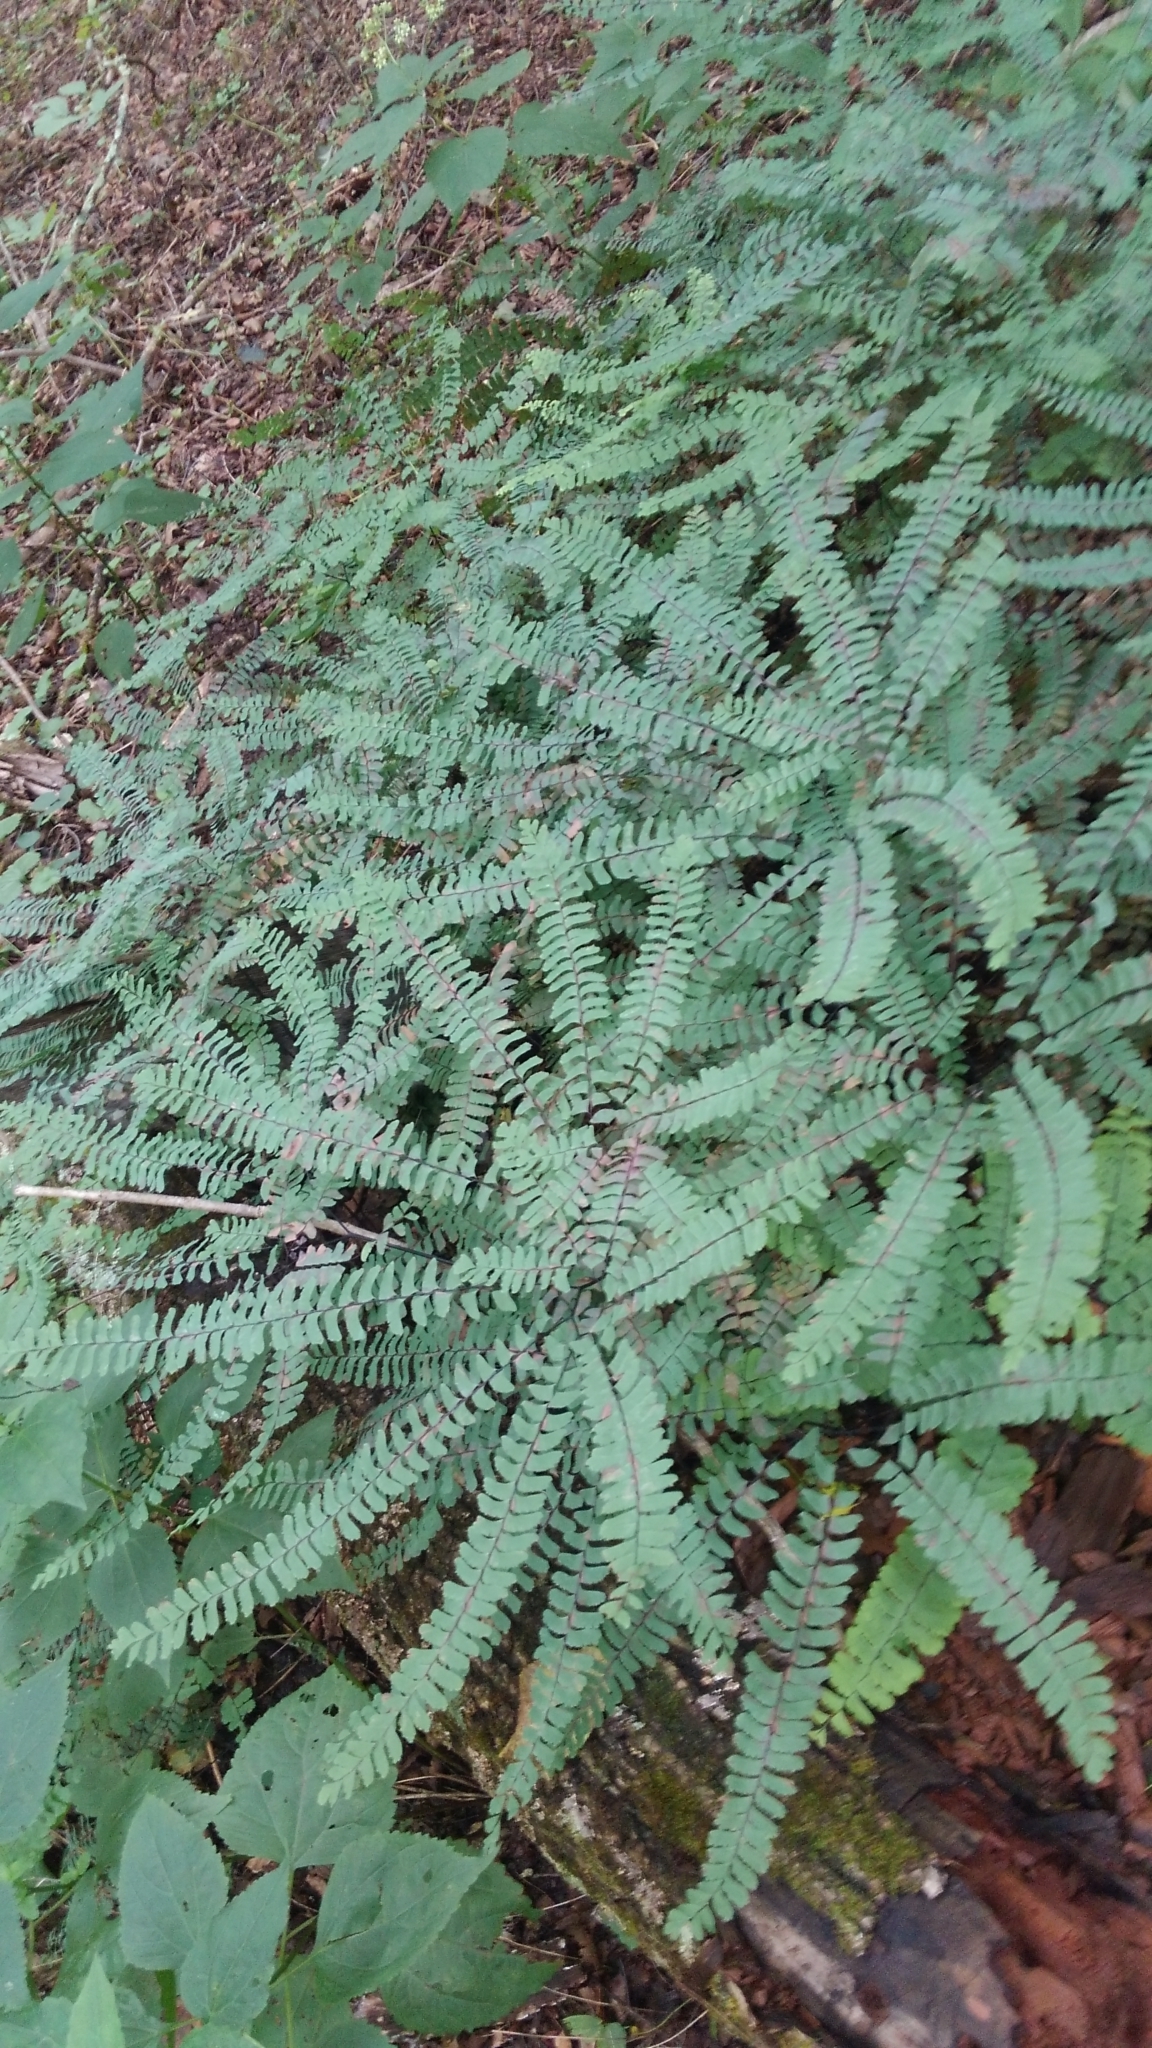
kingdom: Plantae
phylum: Tracheophyta
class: Polypodiopsida
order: Polypodiales
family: Pteridaceae
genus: Adiantum
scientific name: Adiantum pedatum
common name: Five-finger fern
